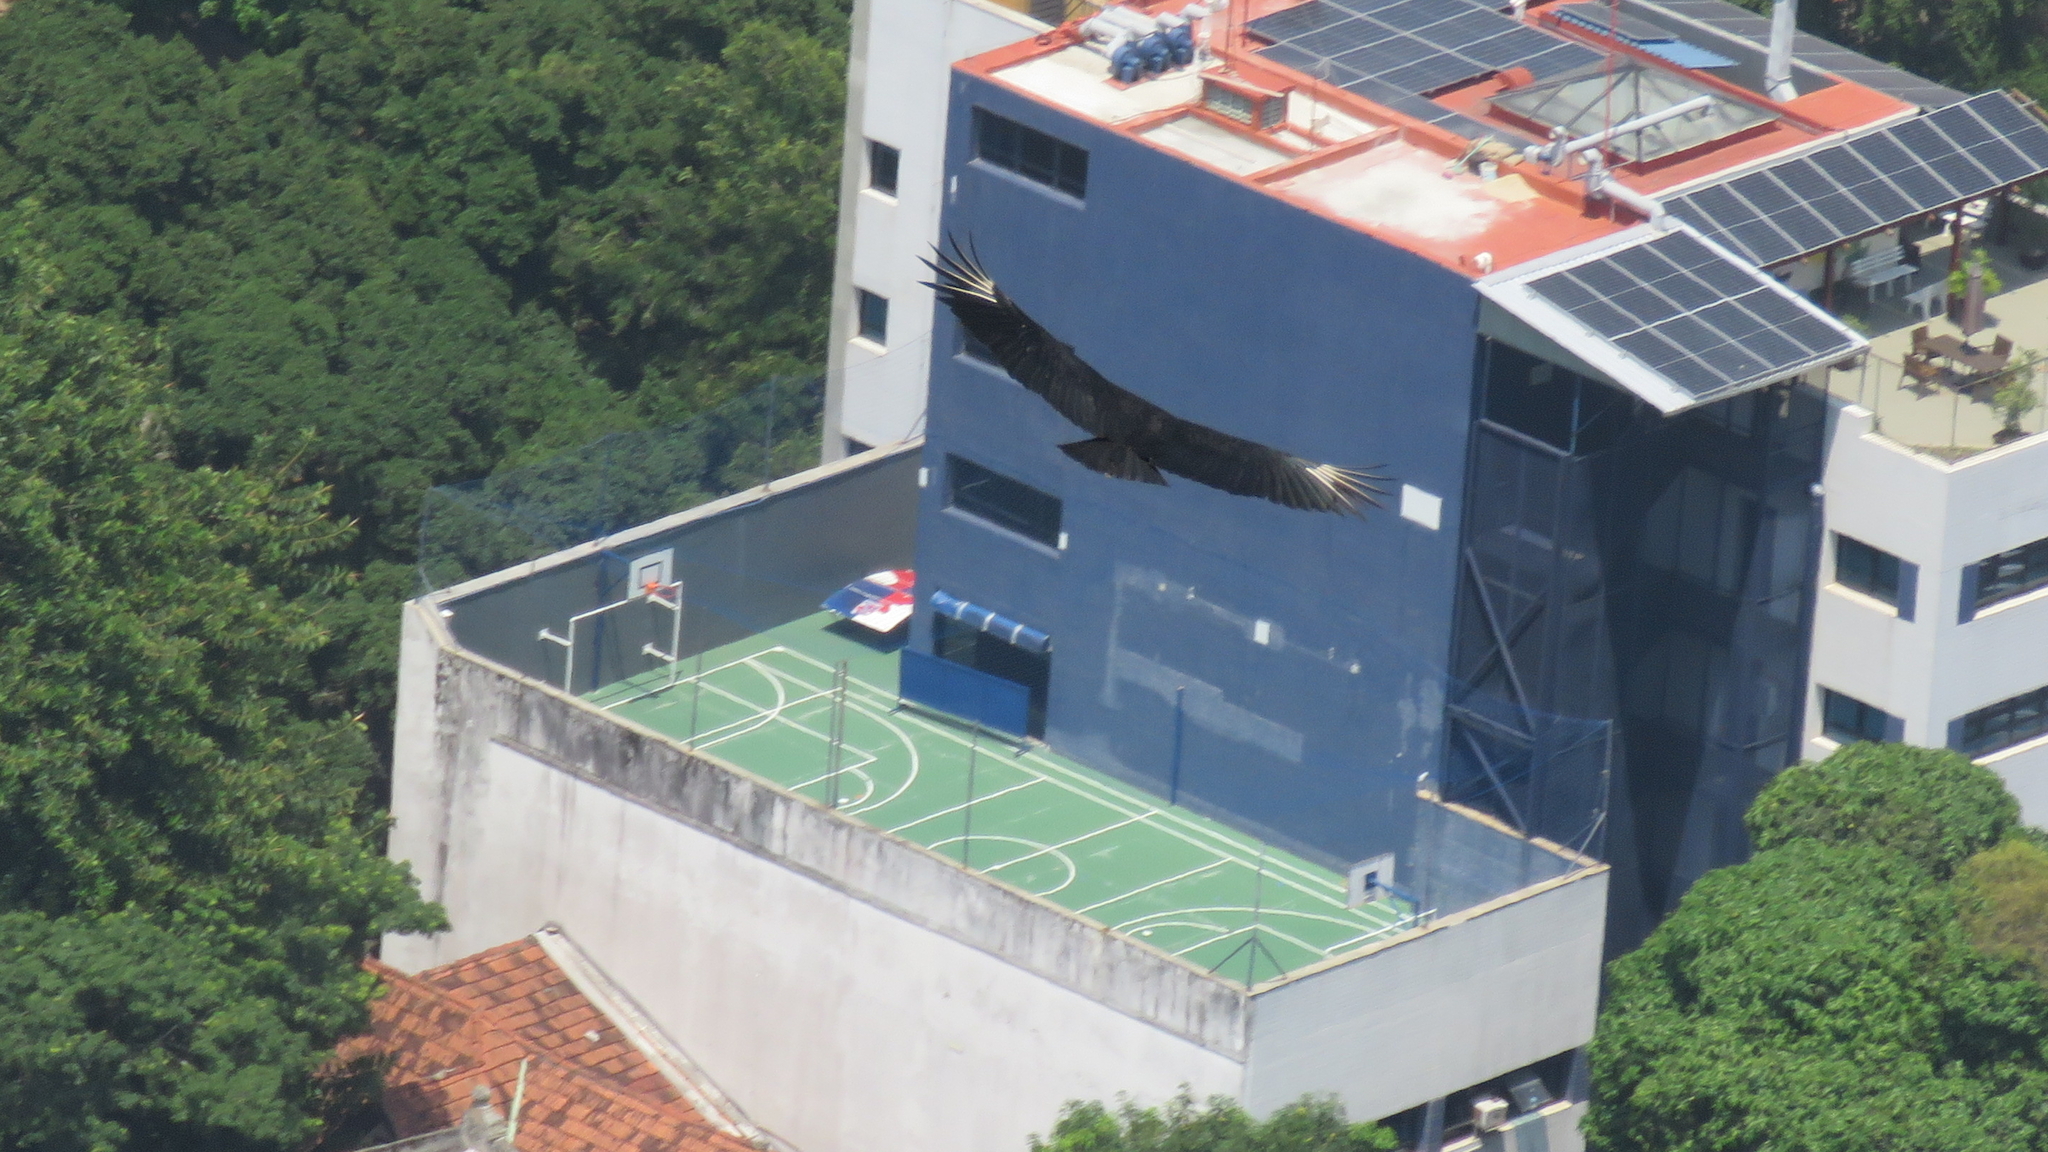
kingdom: Animalia
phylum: Chordata
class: Aves
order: Accipitriformes
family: Cathartidae
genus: Coragyps
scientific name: Coragyps atratus
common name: Black vulture
